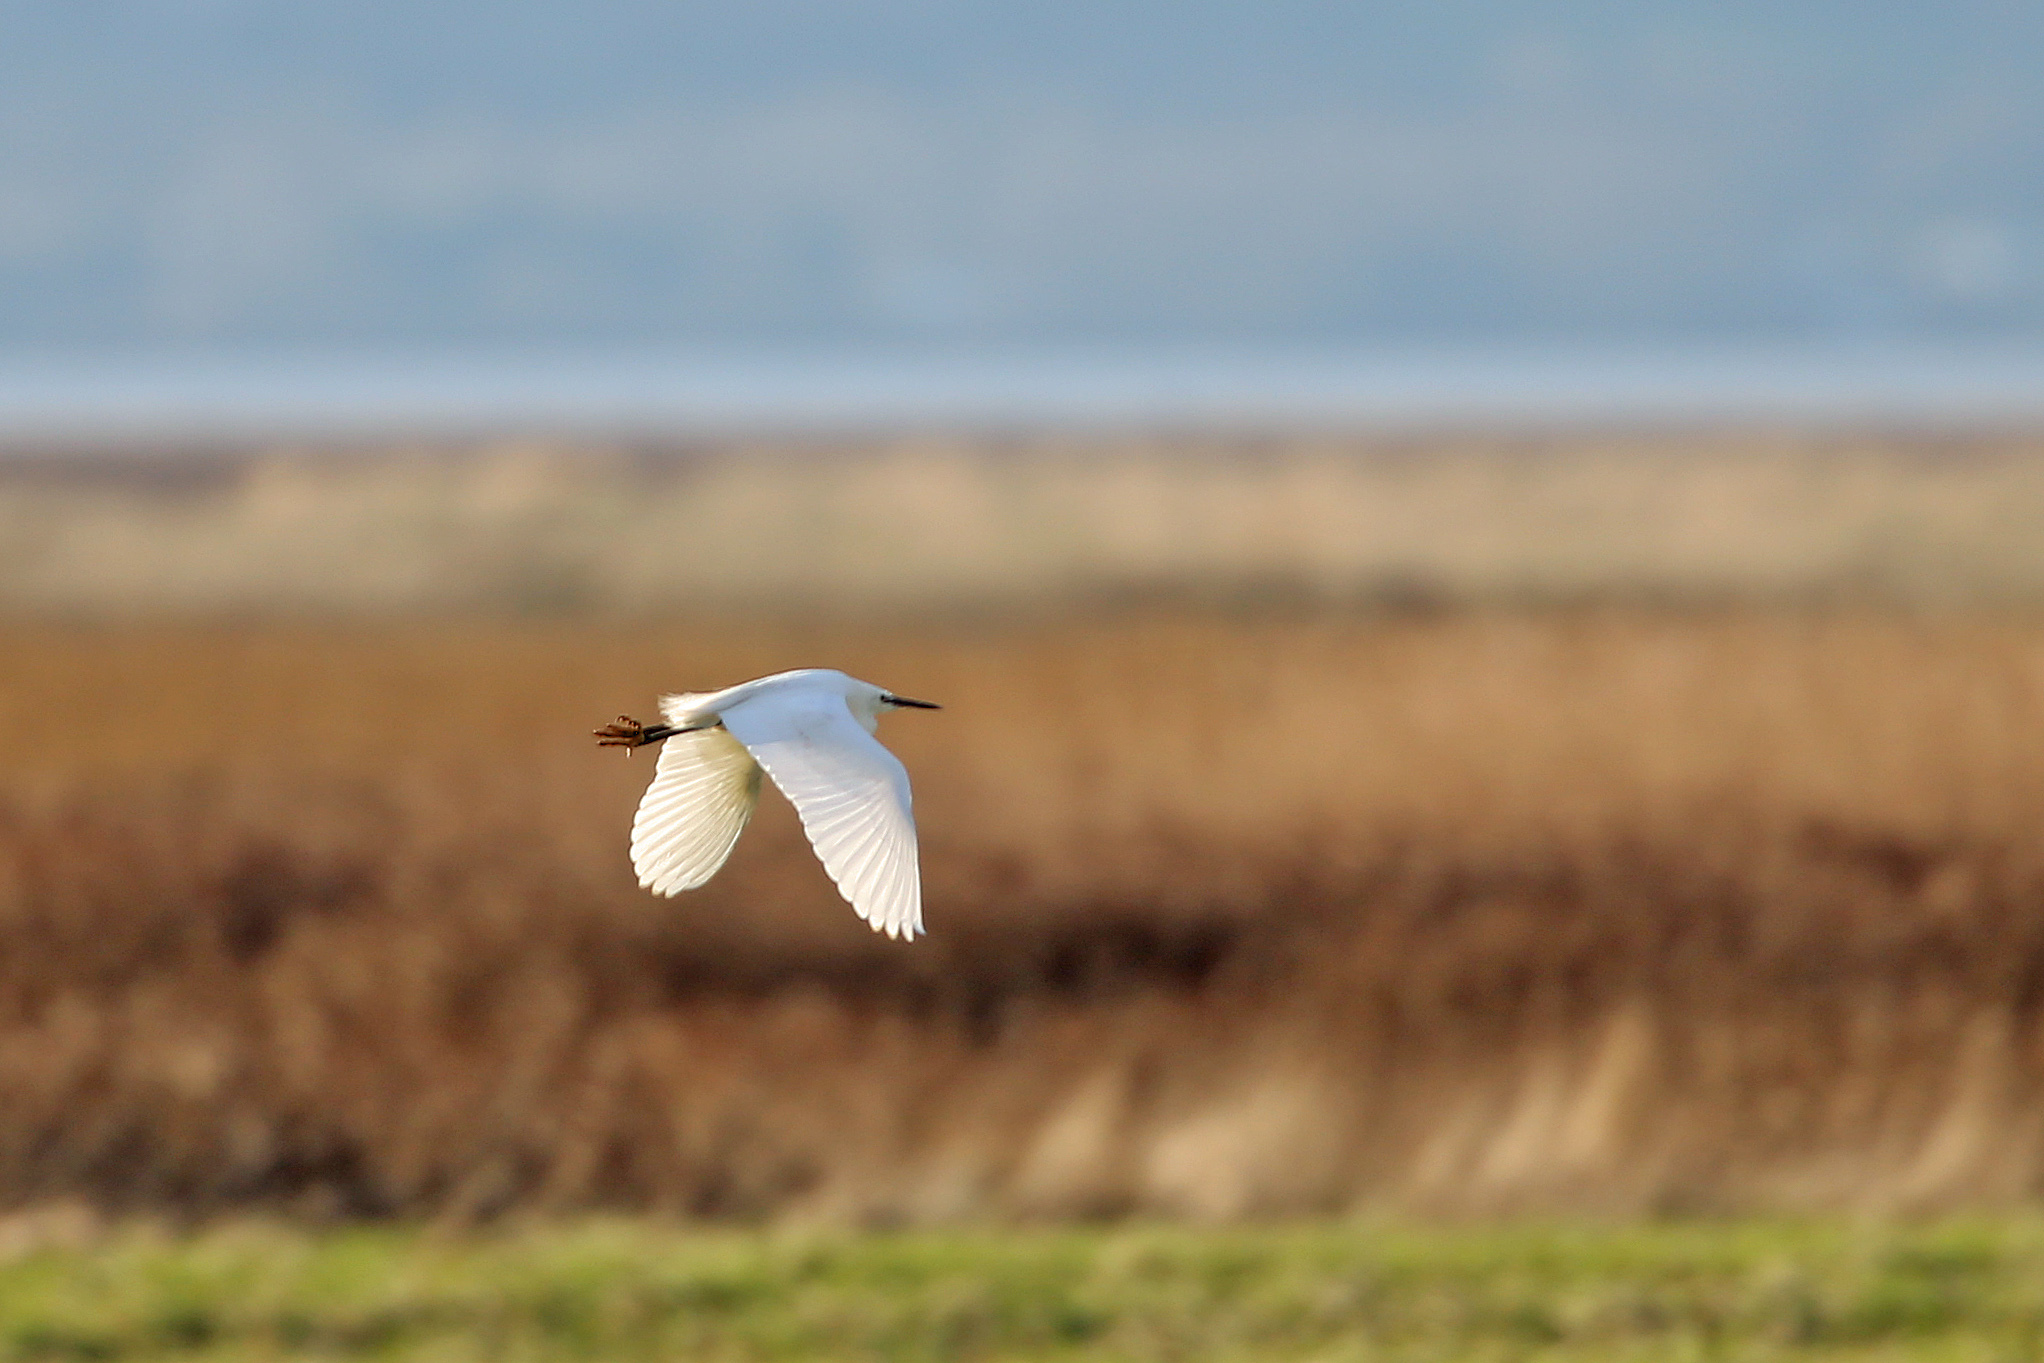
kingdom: Animalia
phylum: Chordata
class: Aves
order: Pelecaniformes
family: Ardeidae
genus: Egretta
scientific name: Egretta garzetta
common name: Little egret
